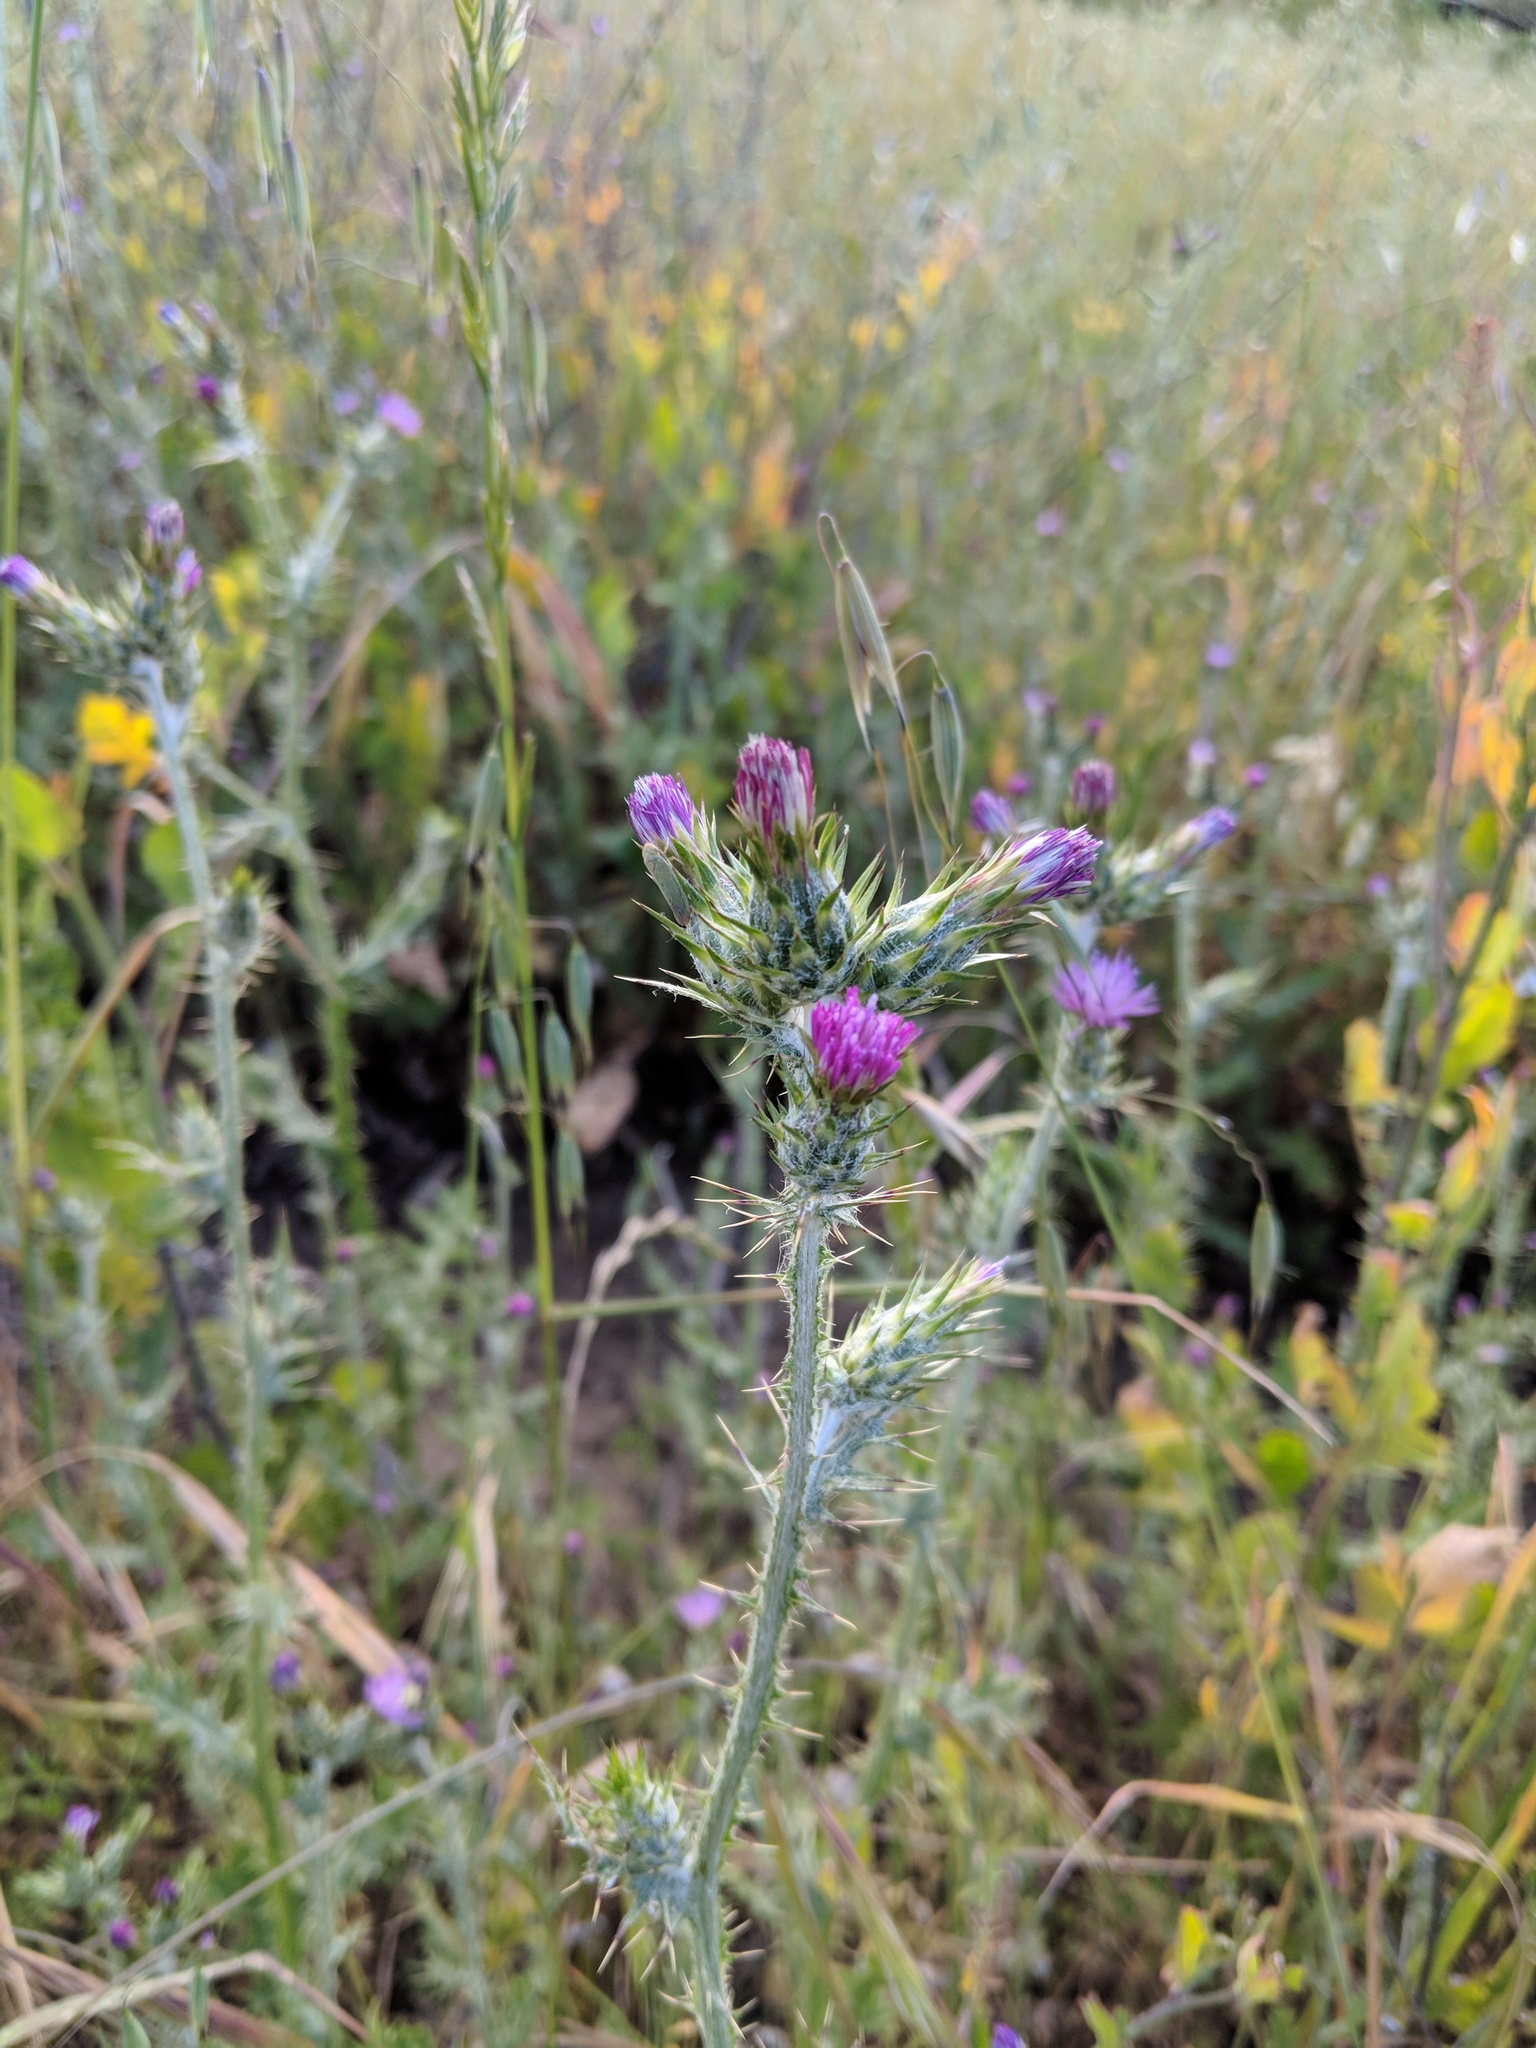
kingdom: Plantae
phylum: Tracheophyta
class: Magnoliopsida
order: Asterales
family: Asteraceae
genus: Carduus
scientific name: Carduus pycnocephalus
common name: Plymouth thistle
